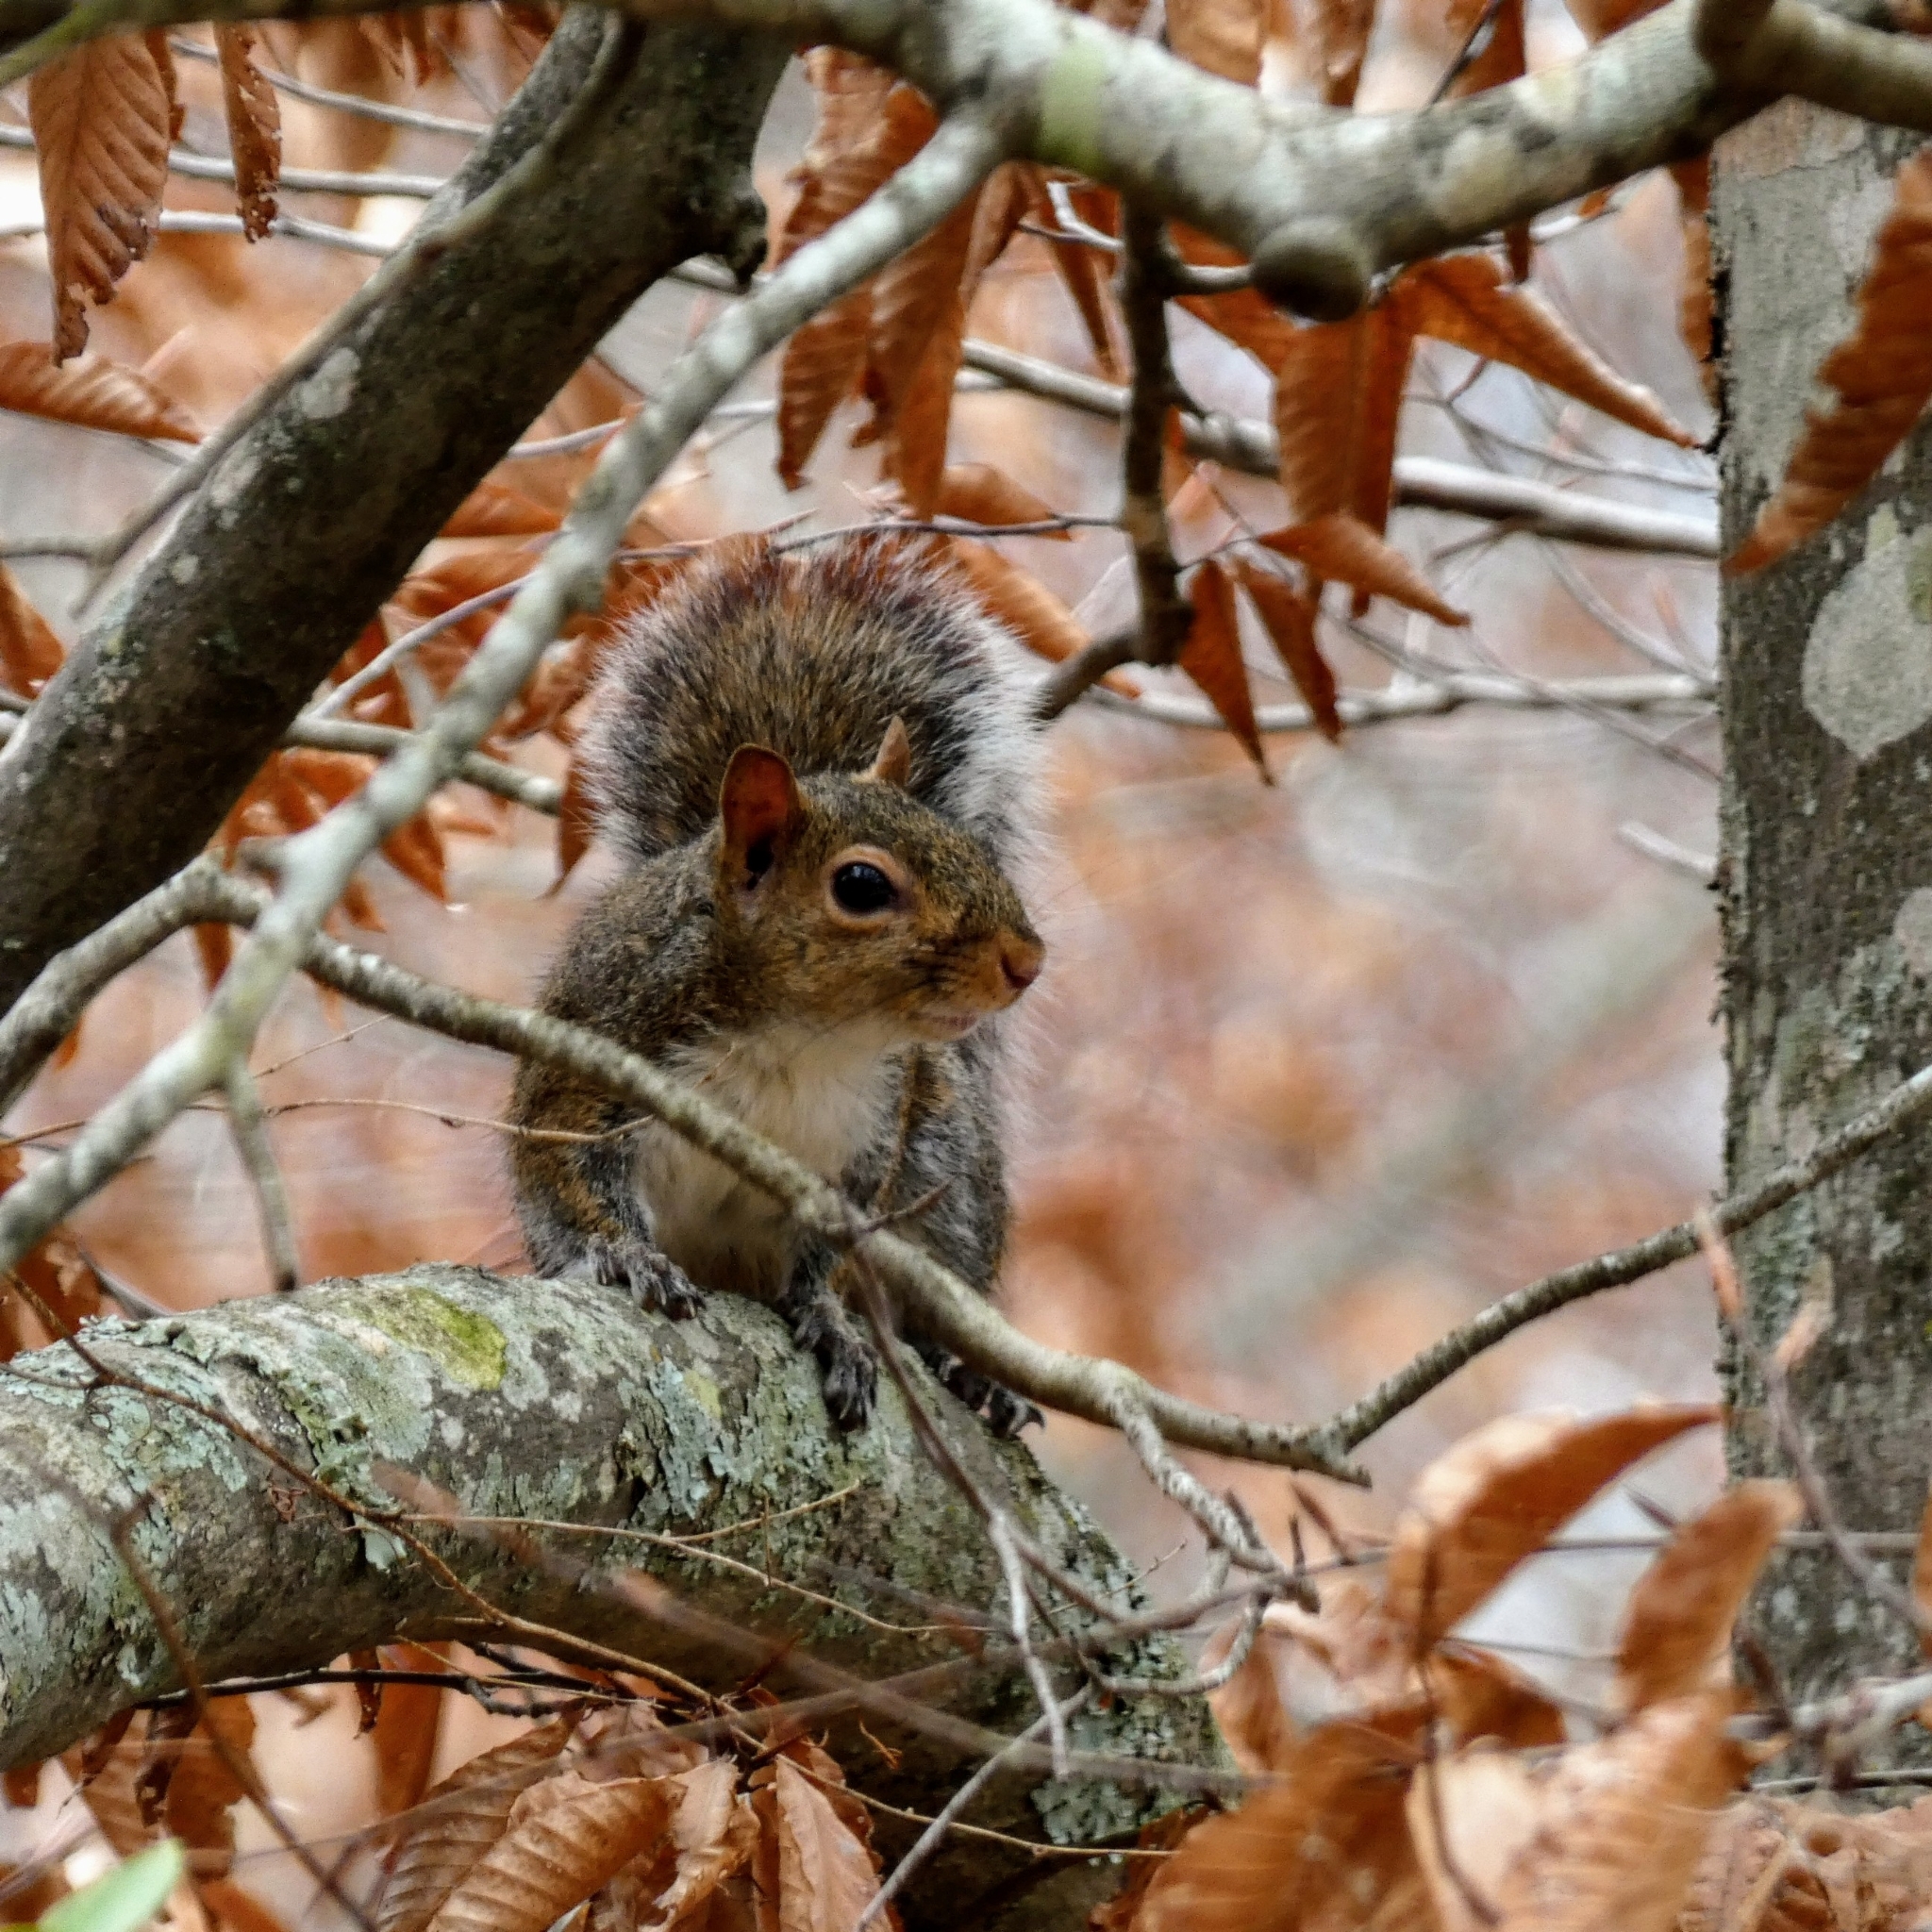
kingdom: Animalia
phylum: Chordata
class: Mammalia
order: Rodentia
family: Sciuridae
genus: Sciurus
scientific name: Sciurus carolinensis
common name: Eastern gray squirrel
